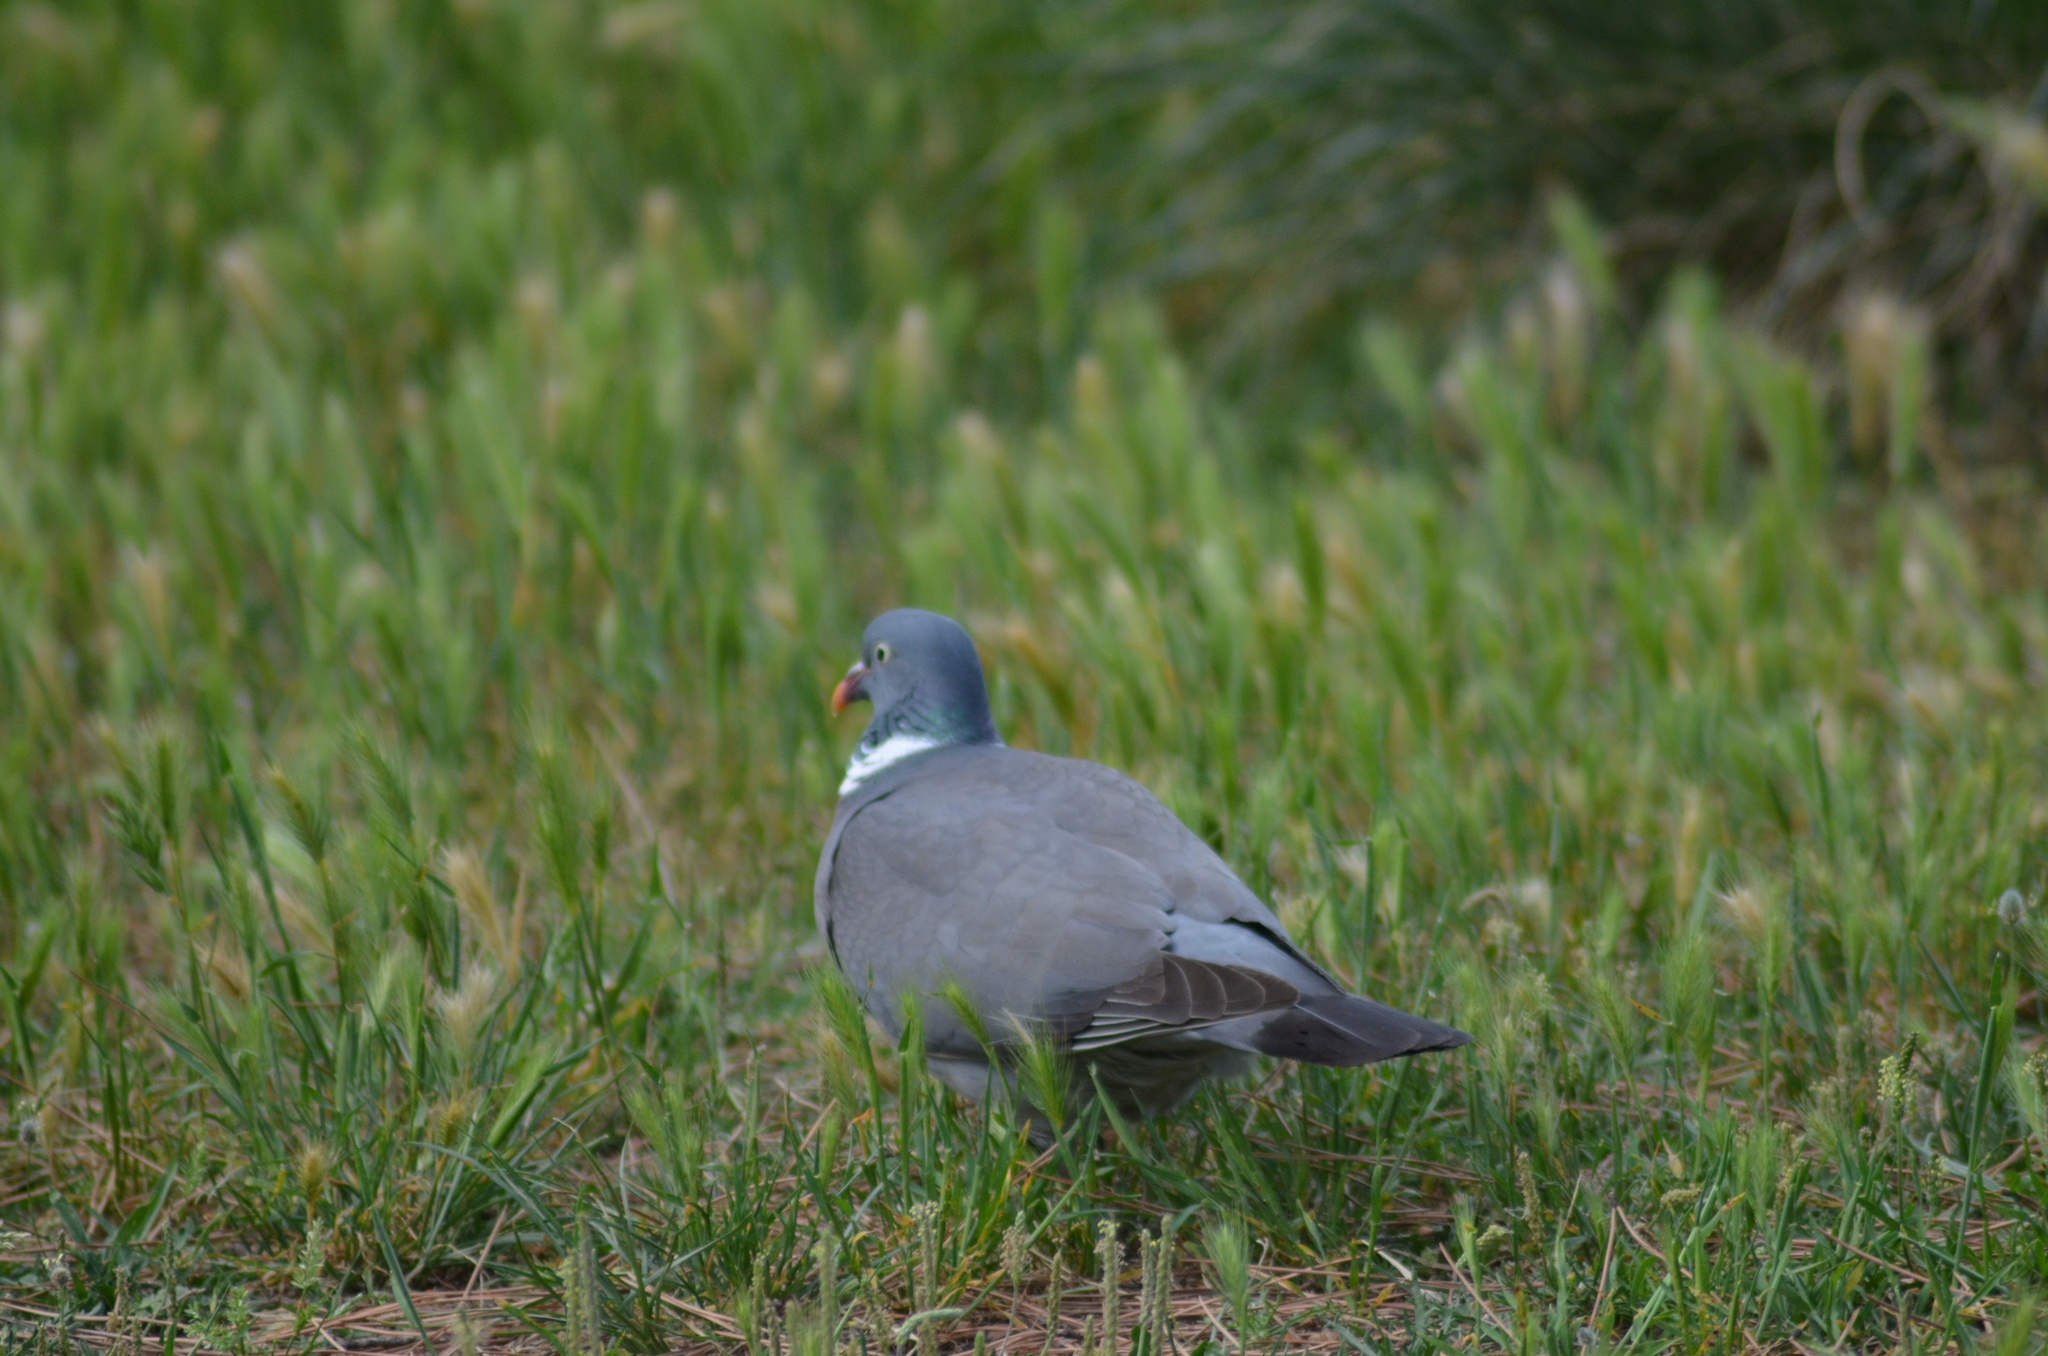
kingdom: Animalia
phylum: Chordata
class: Aves
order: Columbiformes
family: Columbidae
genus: Columba
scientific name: Columba palumbus
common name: Common wood pigeon
